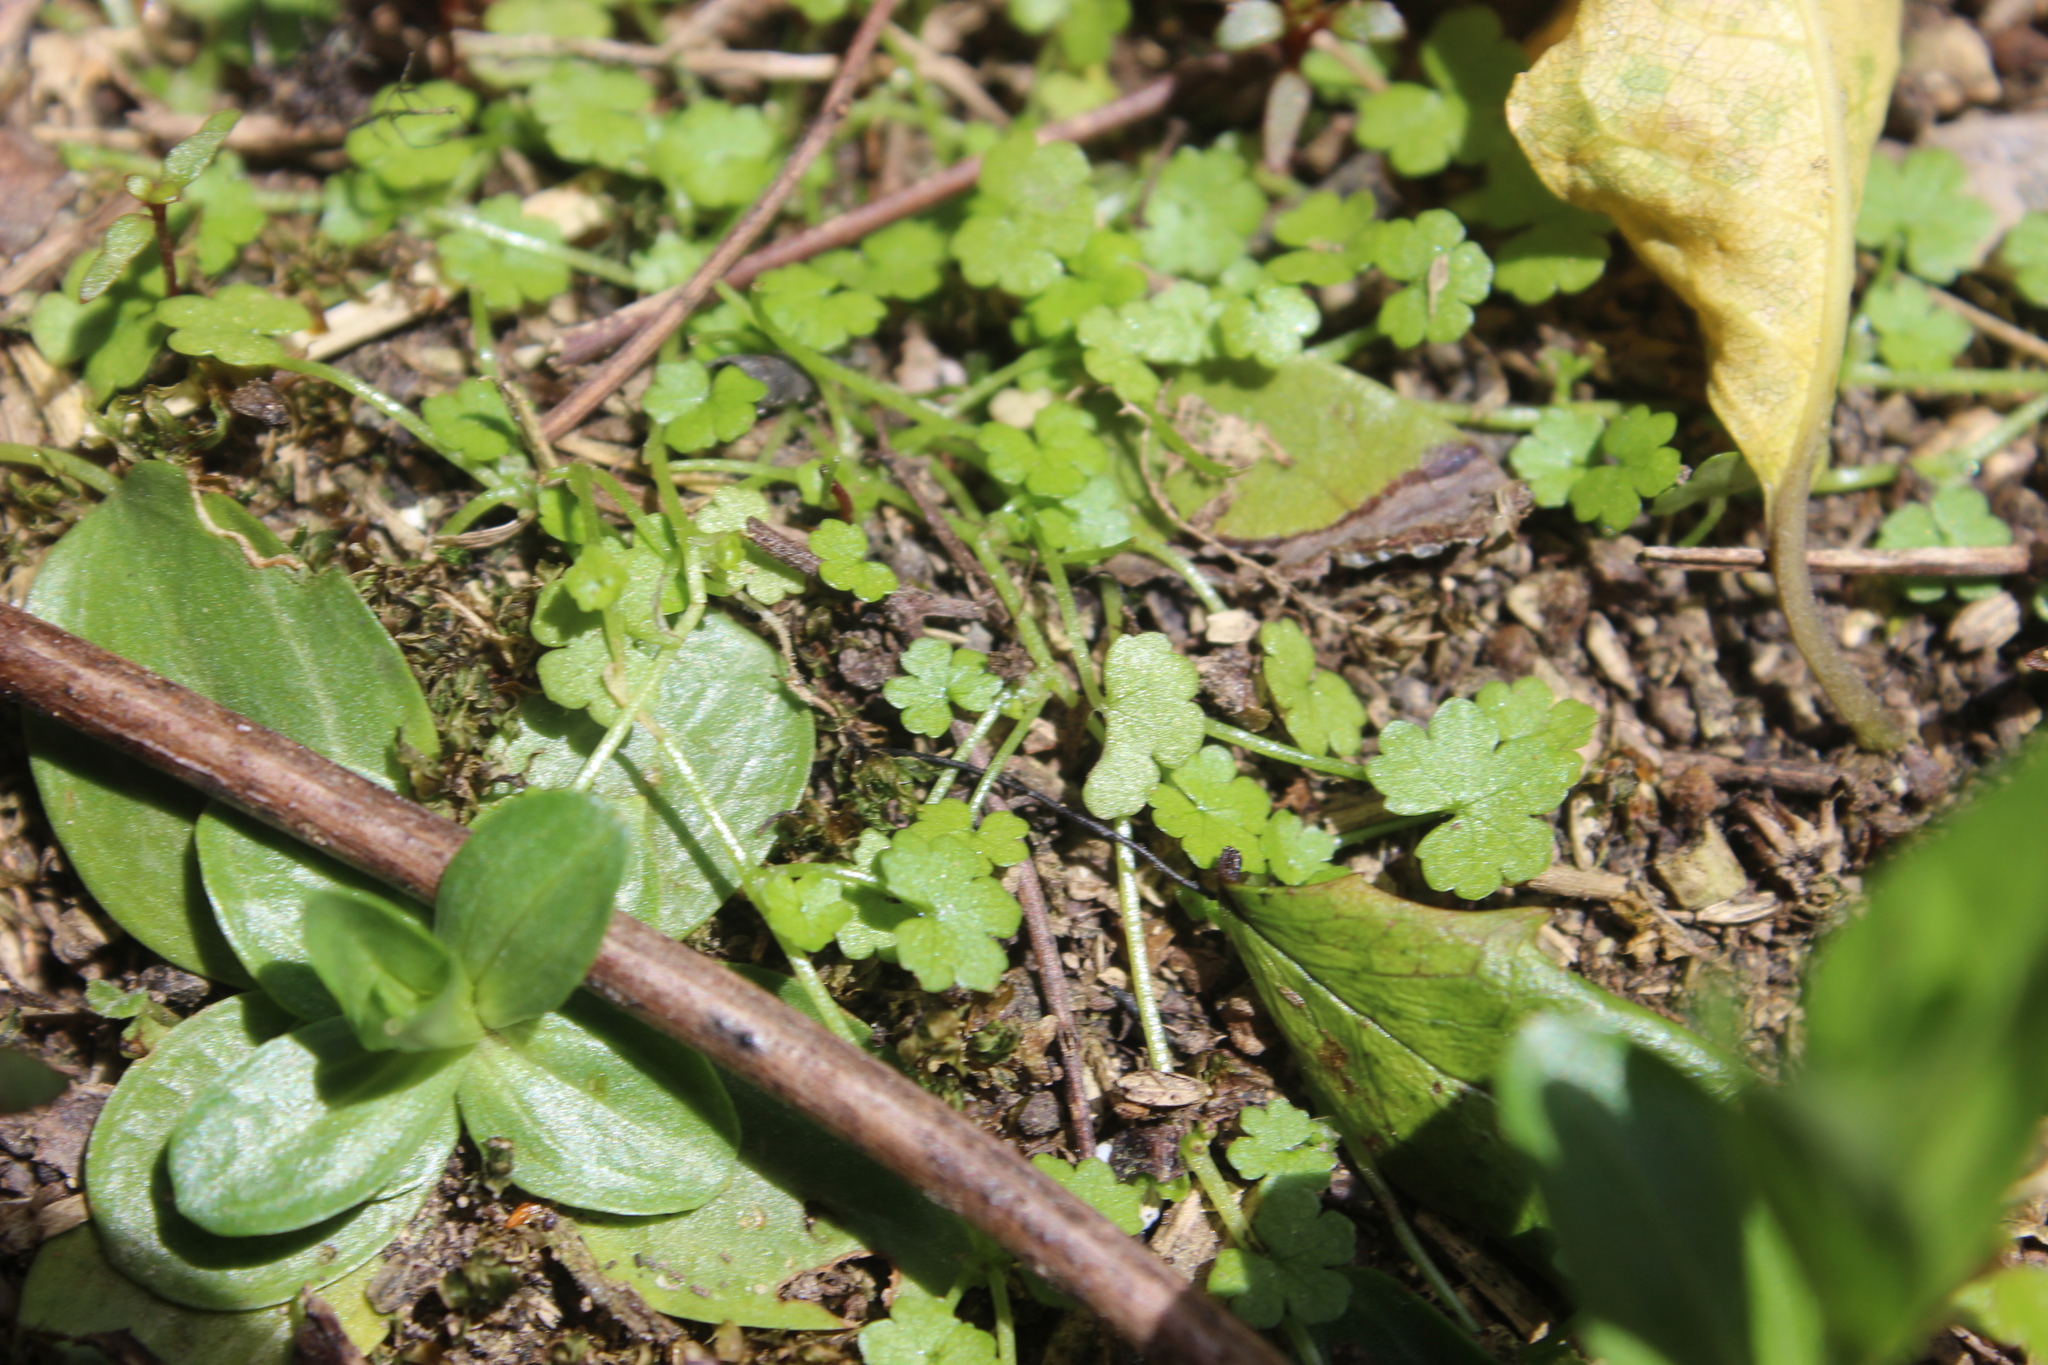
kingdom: Plantae
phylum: Tracheophyta
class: Magnoliopsida
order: Apiales
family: Araliaceae
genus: Hydrocotyle
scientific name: Hydrocotyle heteromeria
